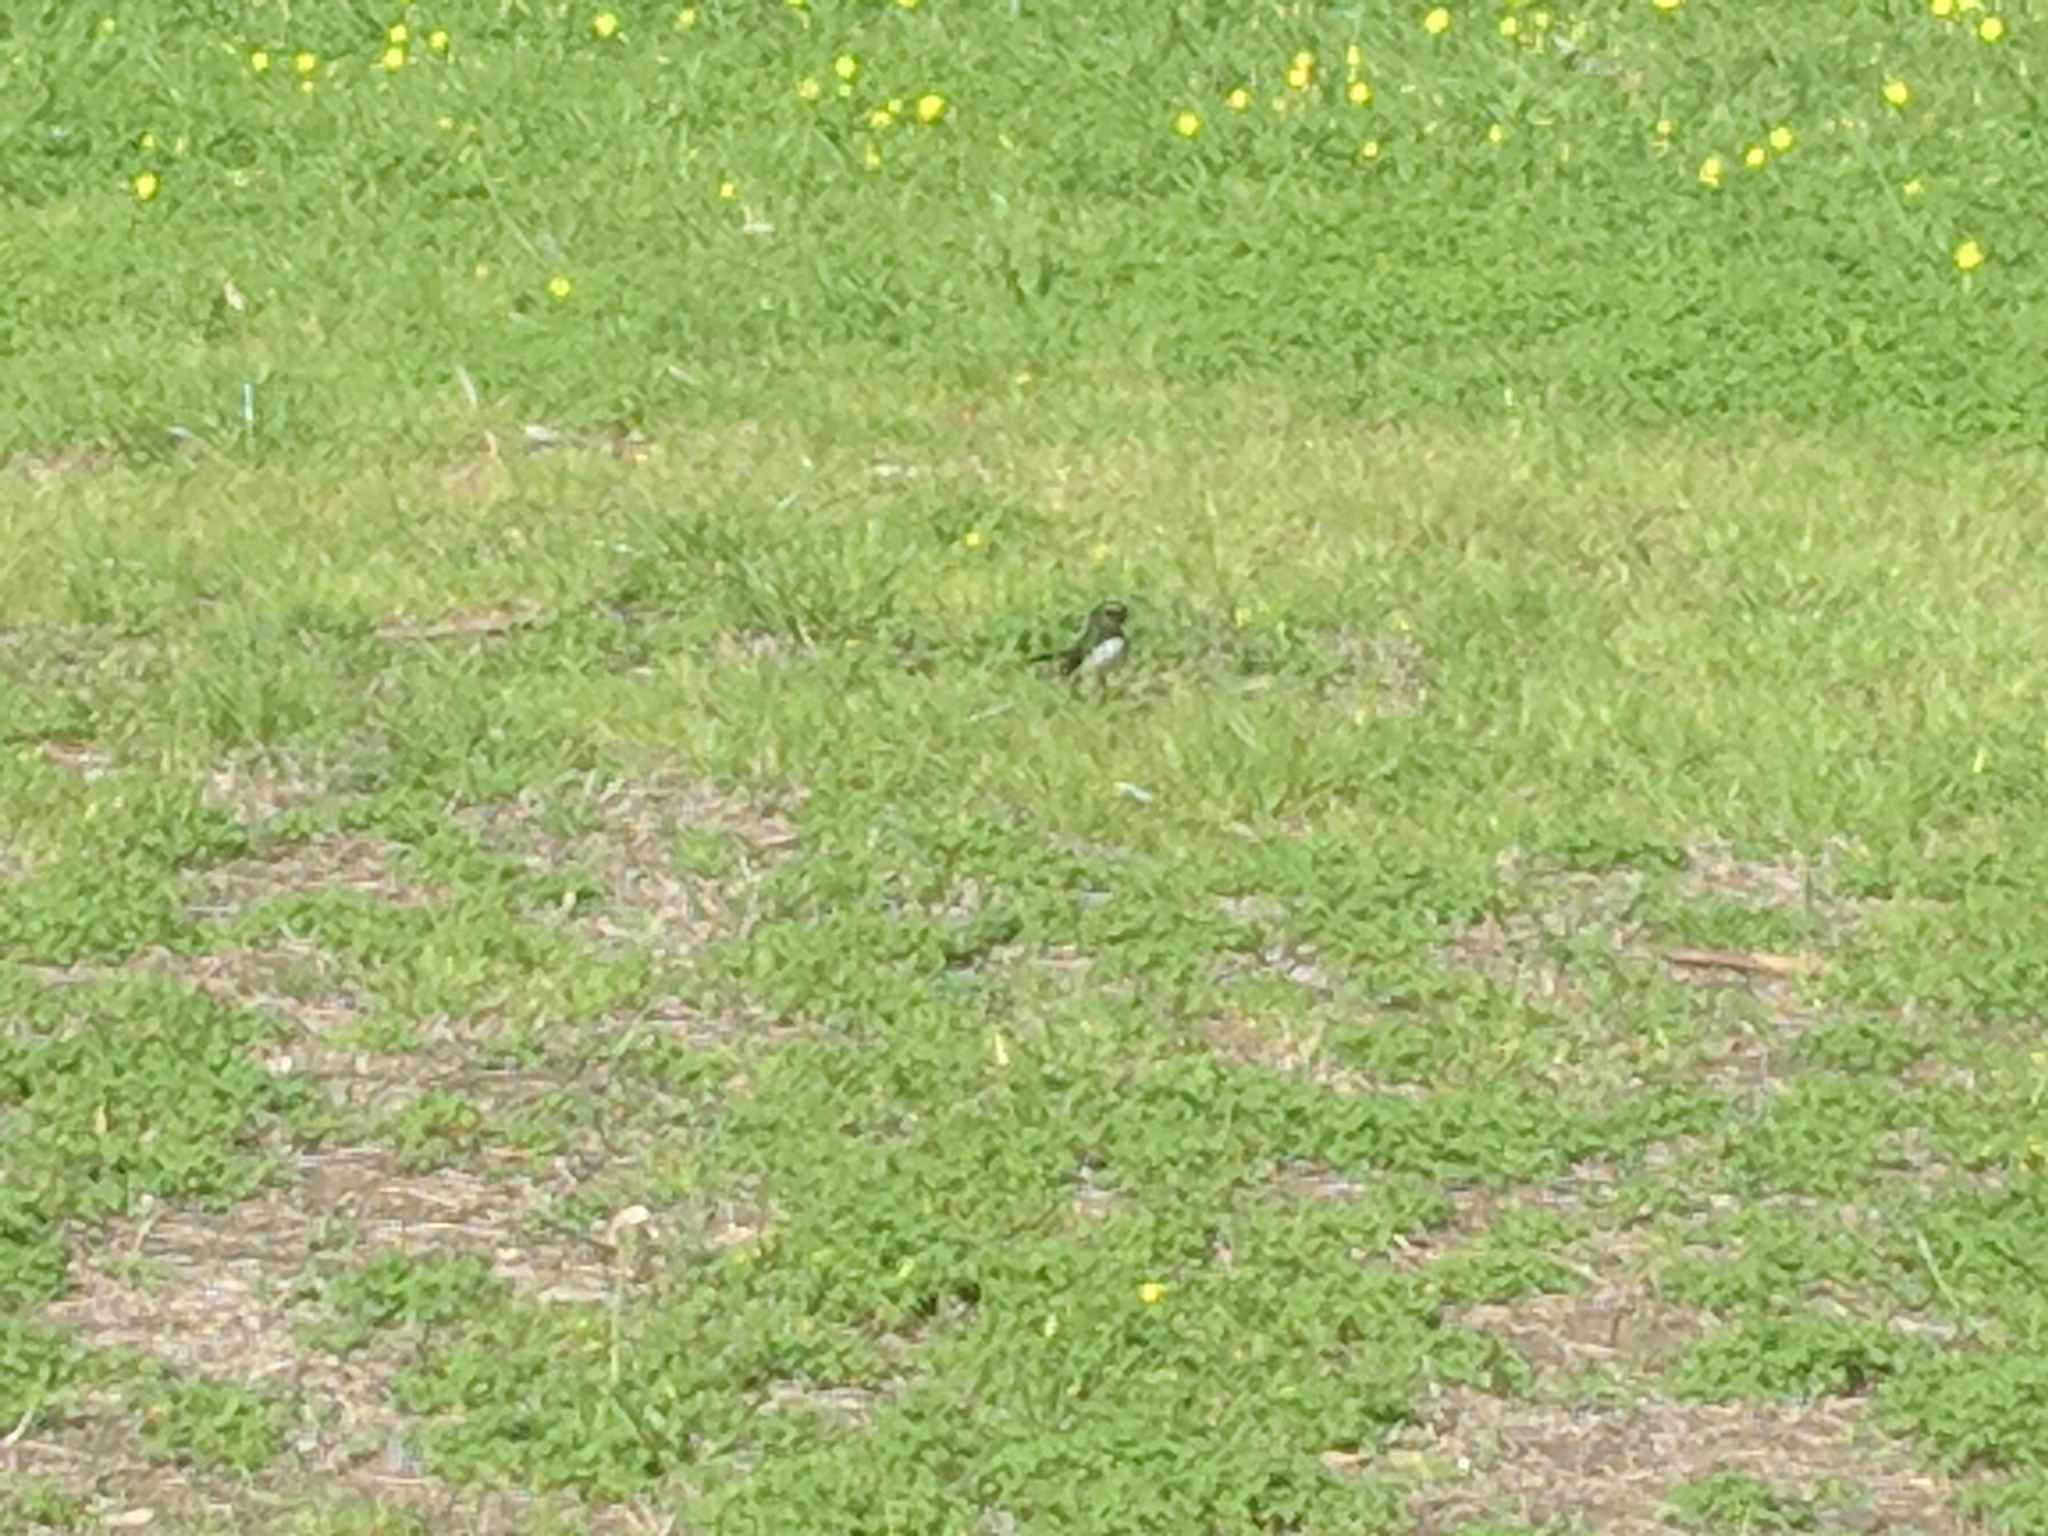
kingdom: Animalia
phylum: Chordata
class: Aves
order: Passeriformes
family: Rhipiduridae
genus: Rhipidura
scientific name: Rhipidura leucophrys
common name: Willie wagtail
